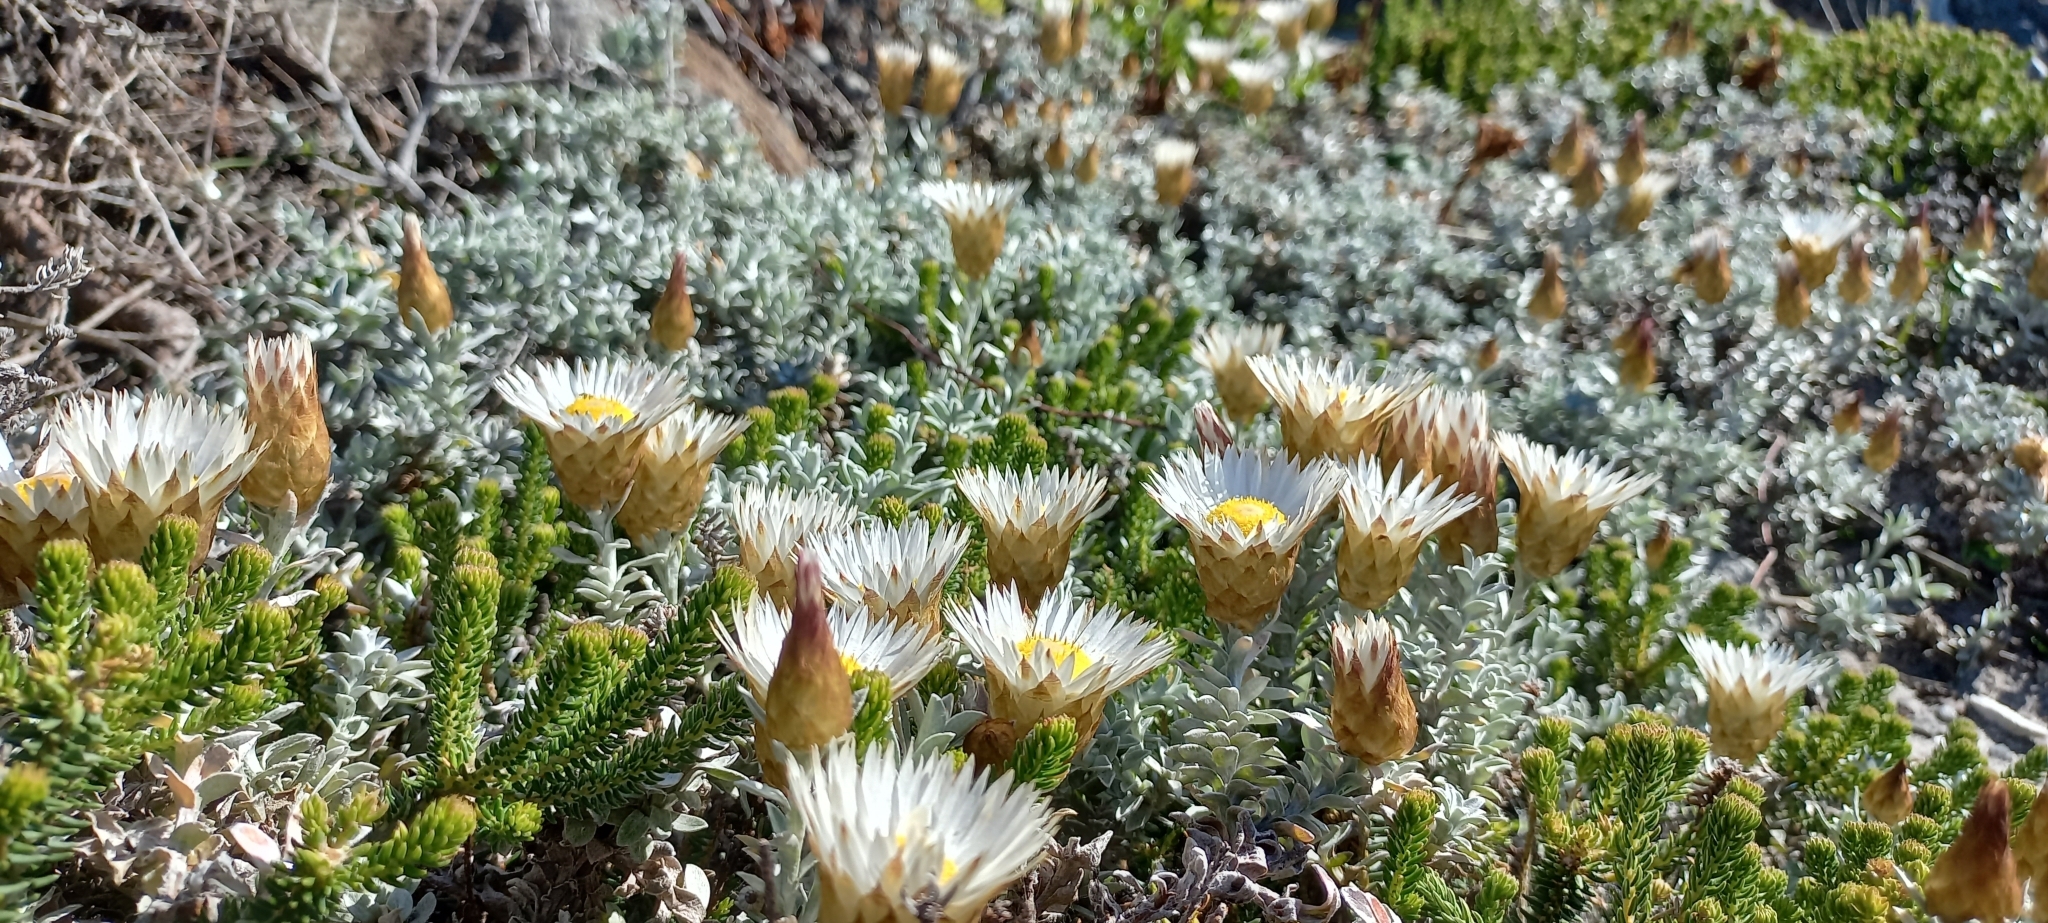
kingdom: Plantae
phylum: Tracheophyta
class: Magnoliopsida
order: Asterales
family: Asteraceae
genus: Helichrysum
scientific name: Helichrysum retortum
